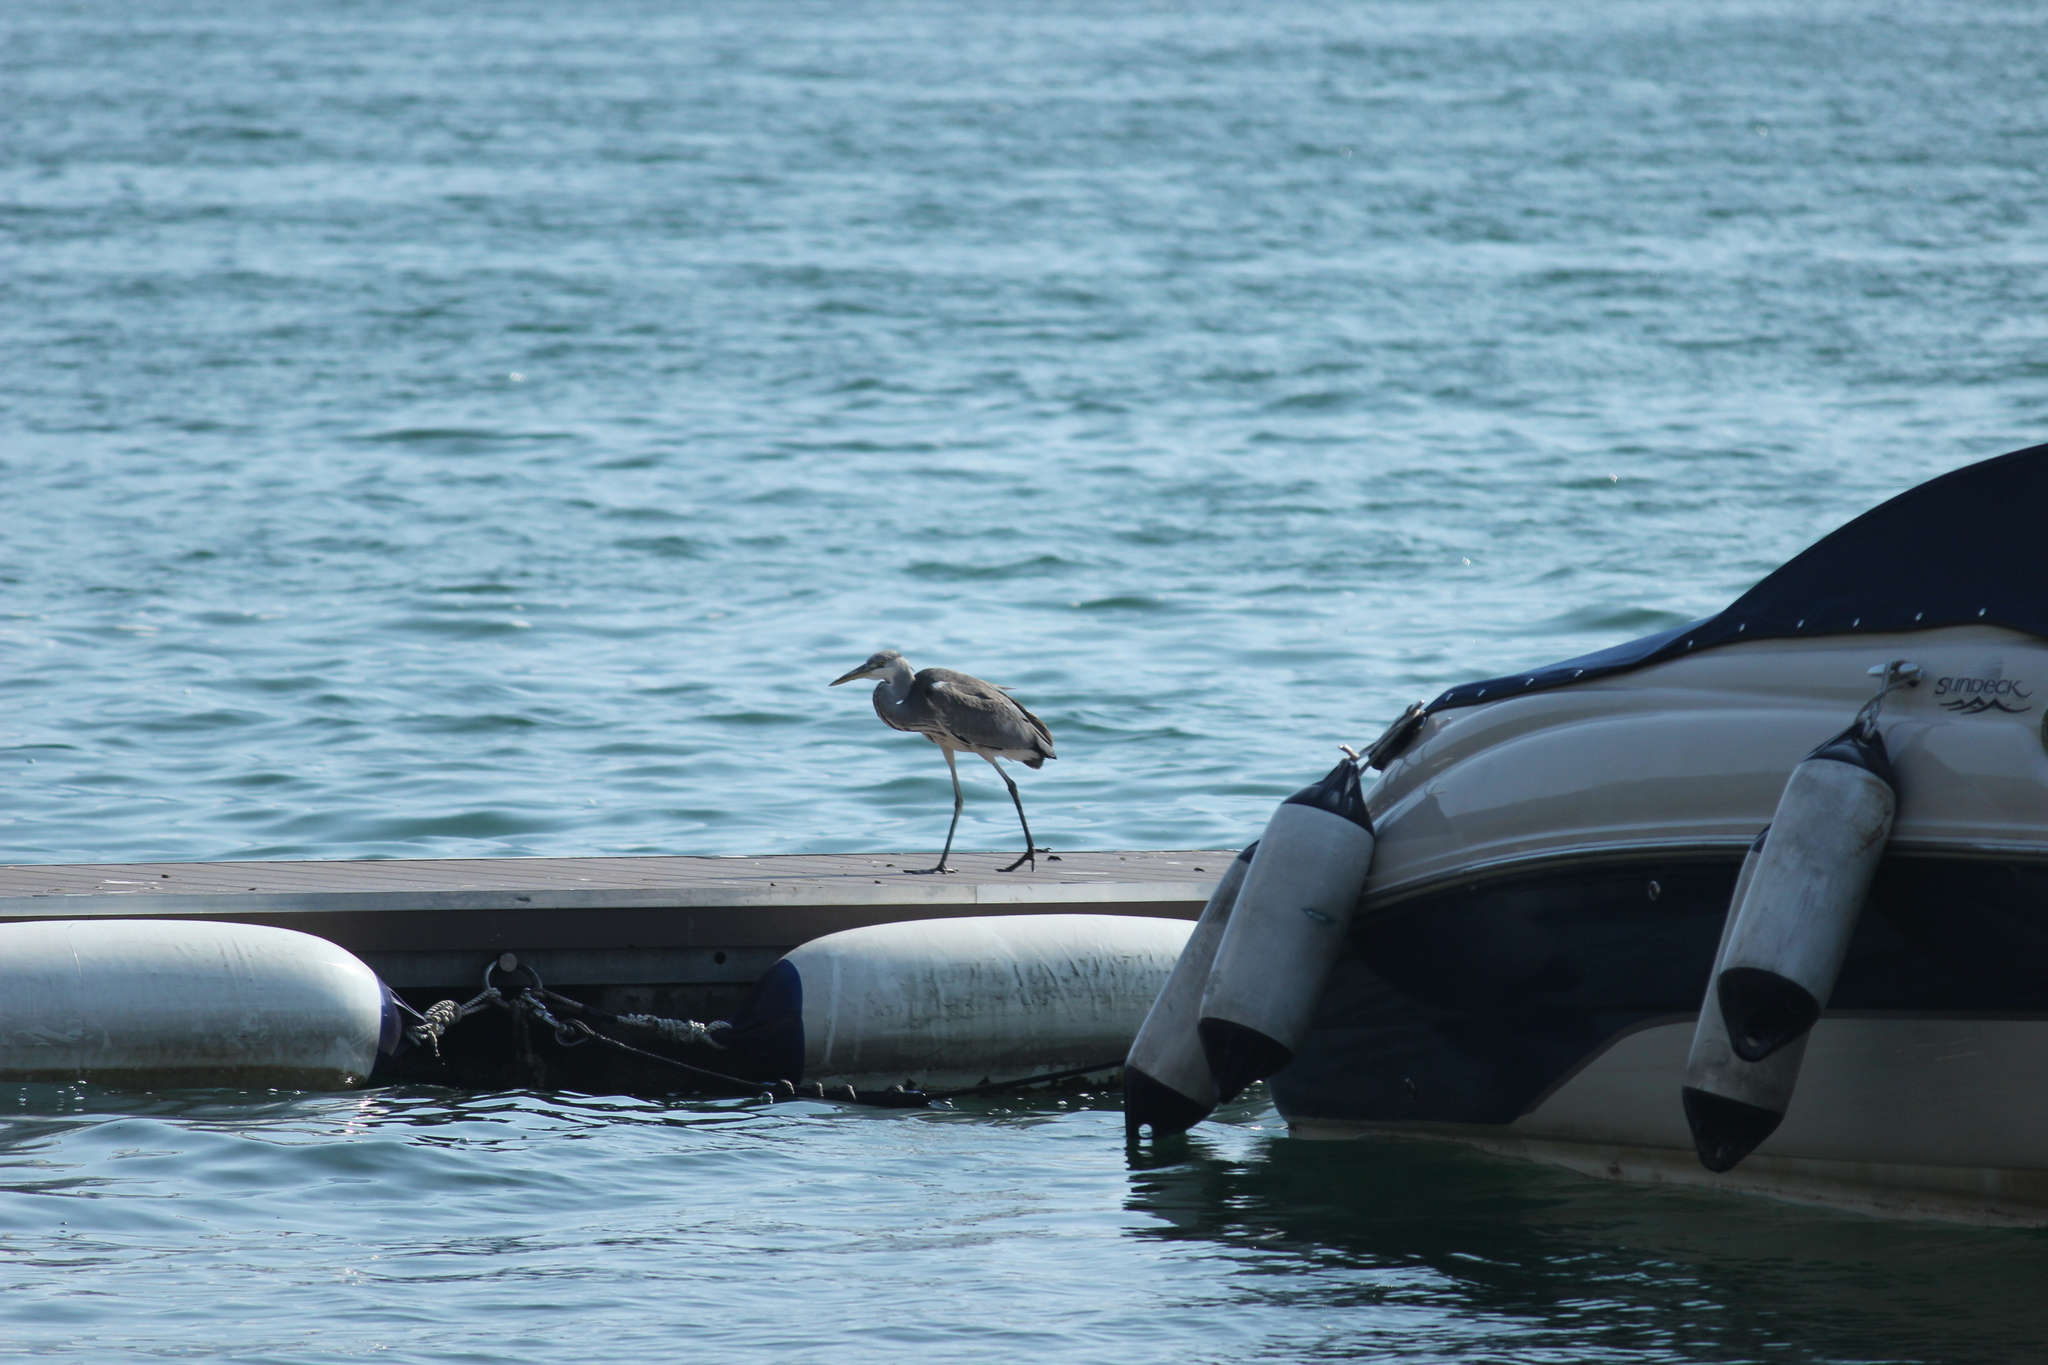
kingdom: Animalia
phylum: Chordata
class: Aves
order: Pelecaniformes
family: Ardeidae
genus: Ardea
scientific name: Ardea cinerea
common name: Grey heron
